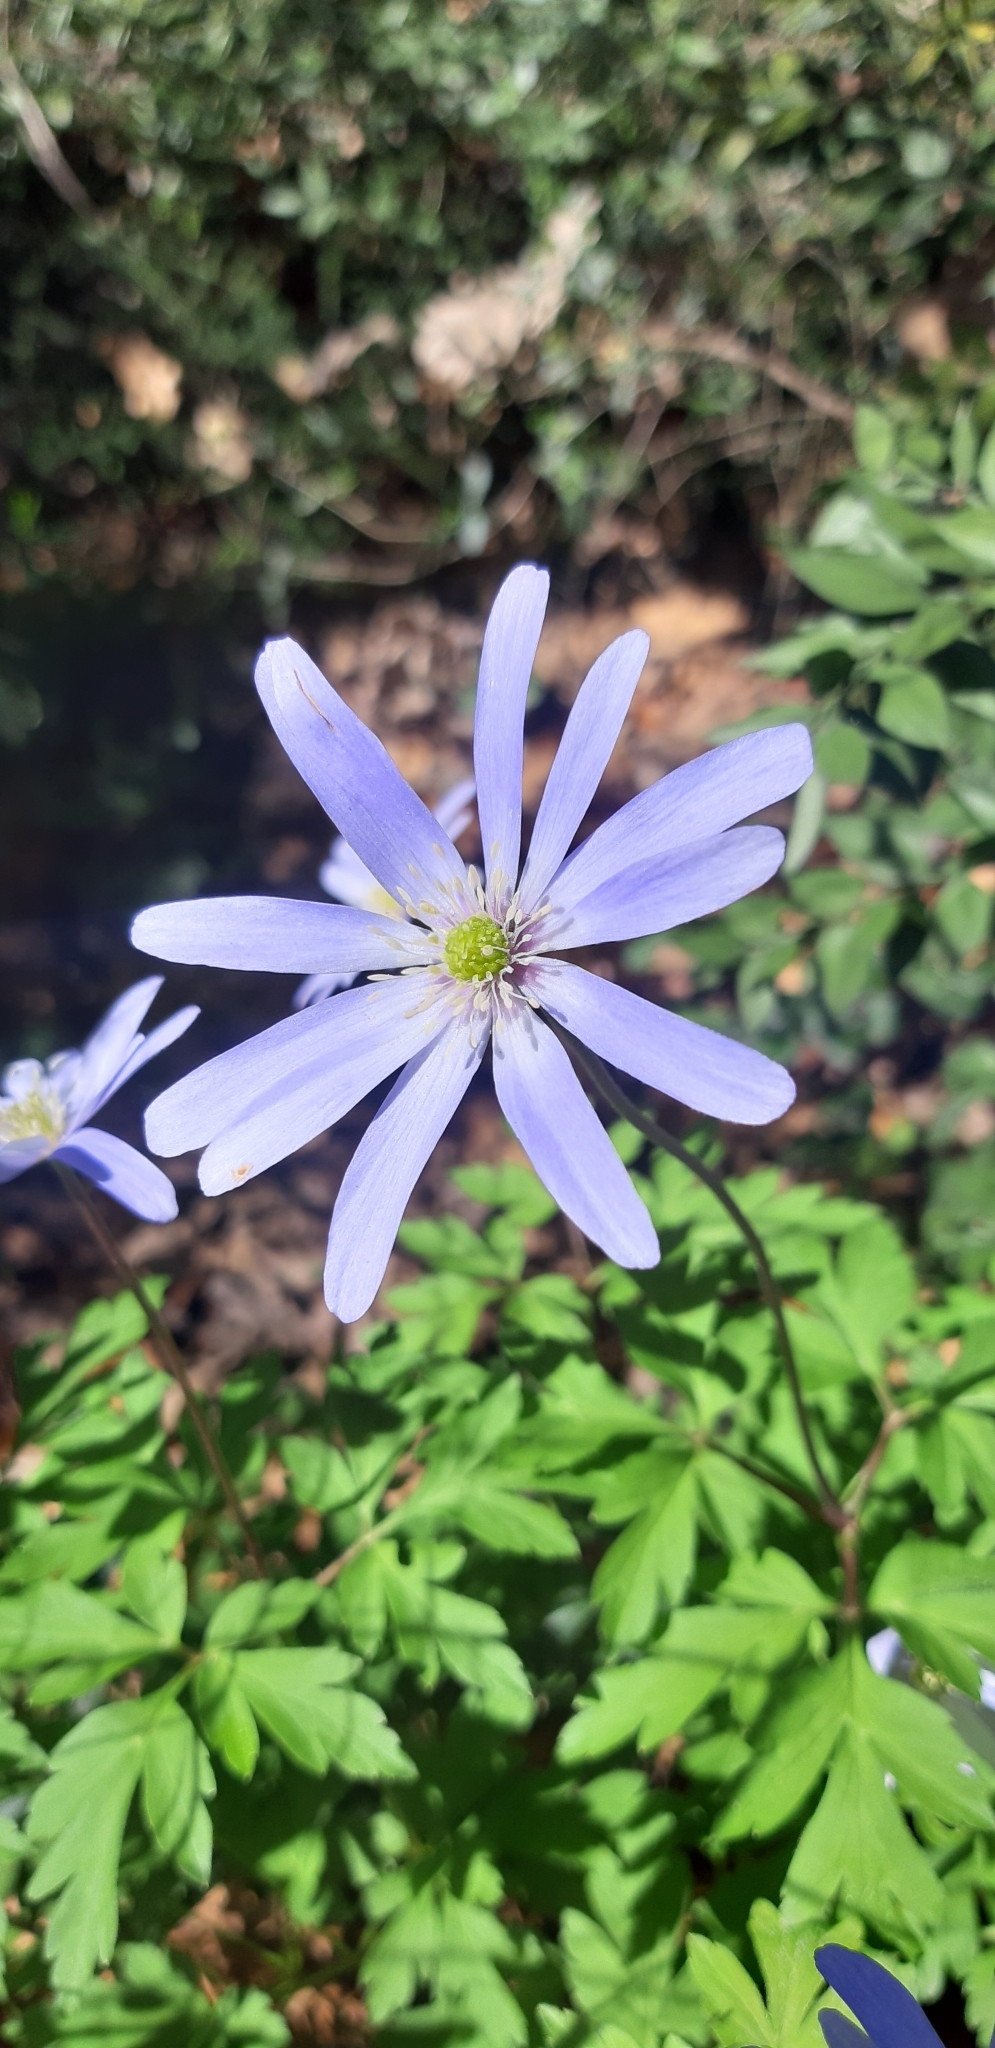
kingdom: Plantae
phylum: Tracheophyta
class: Magnoliopsida
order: Ranunculales
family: Ranunculaceae
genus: Anemone
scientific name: Anemone apennina
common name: Blue anemone
